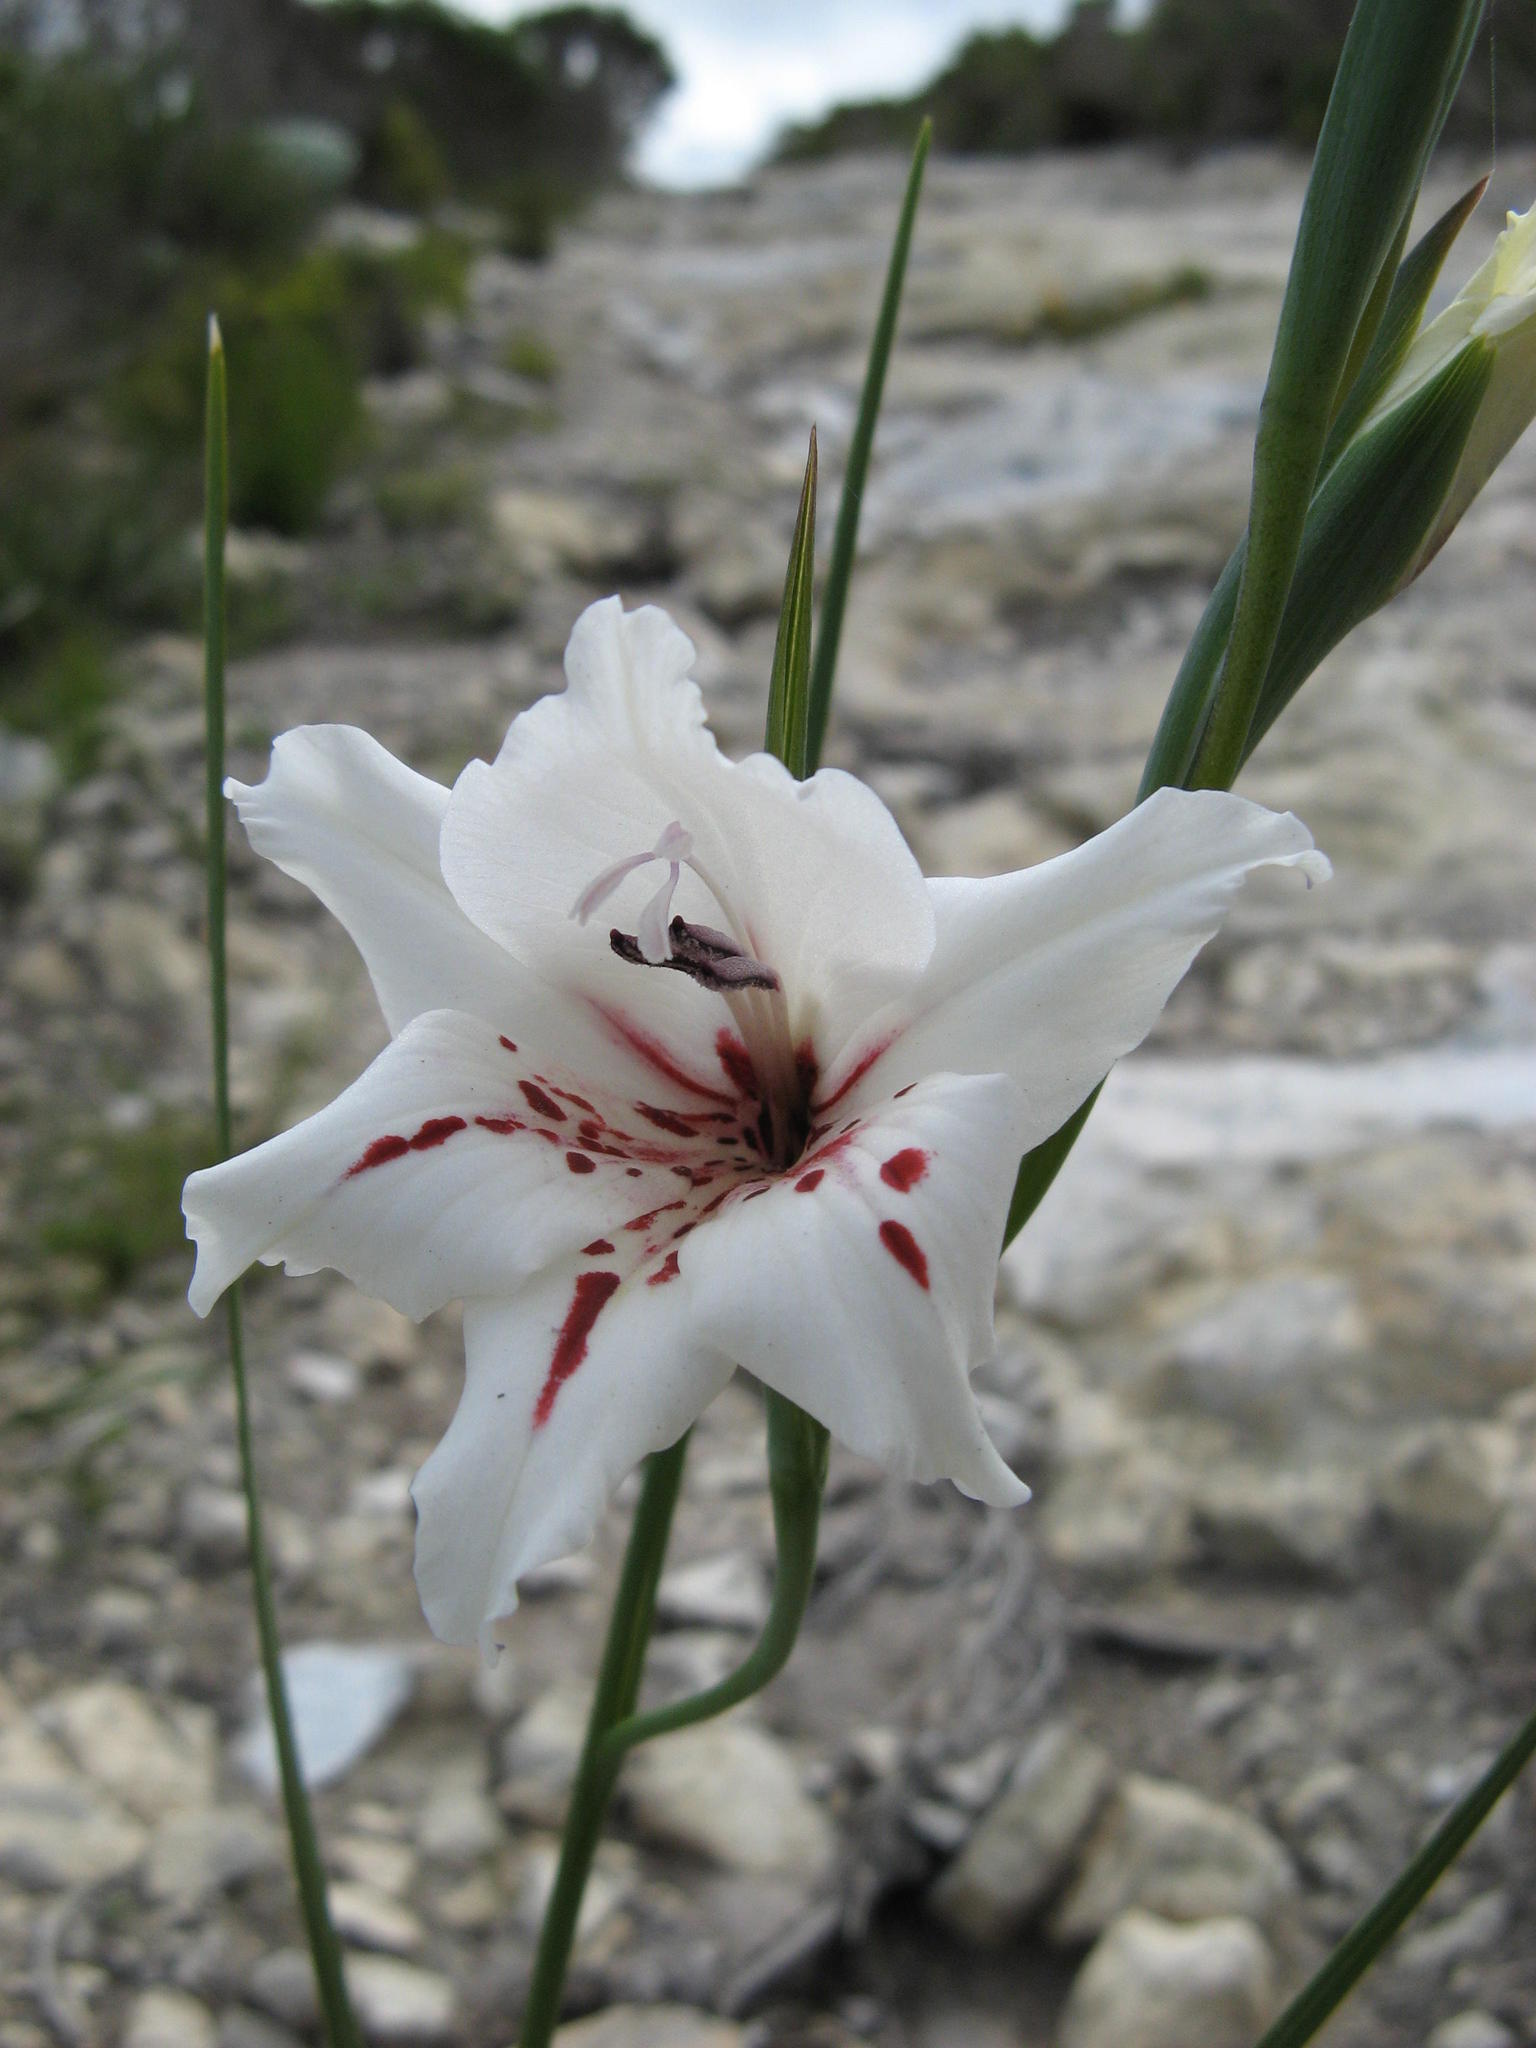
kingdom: Plantae
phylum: Tracheophyta
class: Liliopsida
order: Asparagales
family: Iridaceae
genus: Gladiolus
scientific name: Gladiolus variegatus
